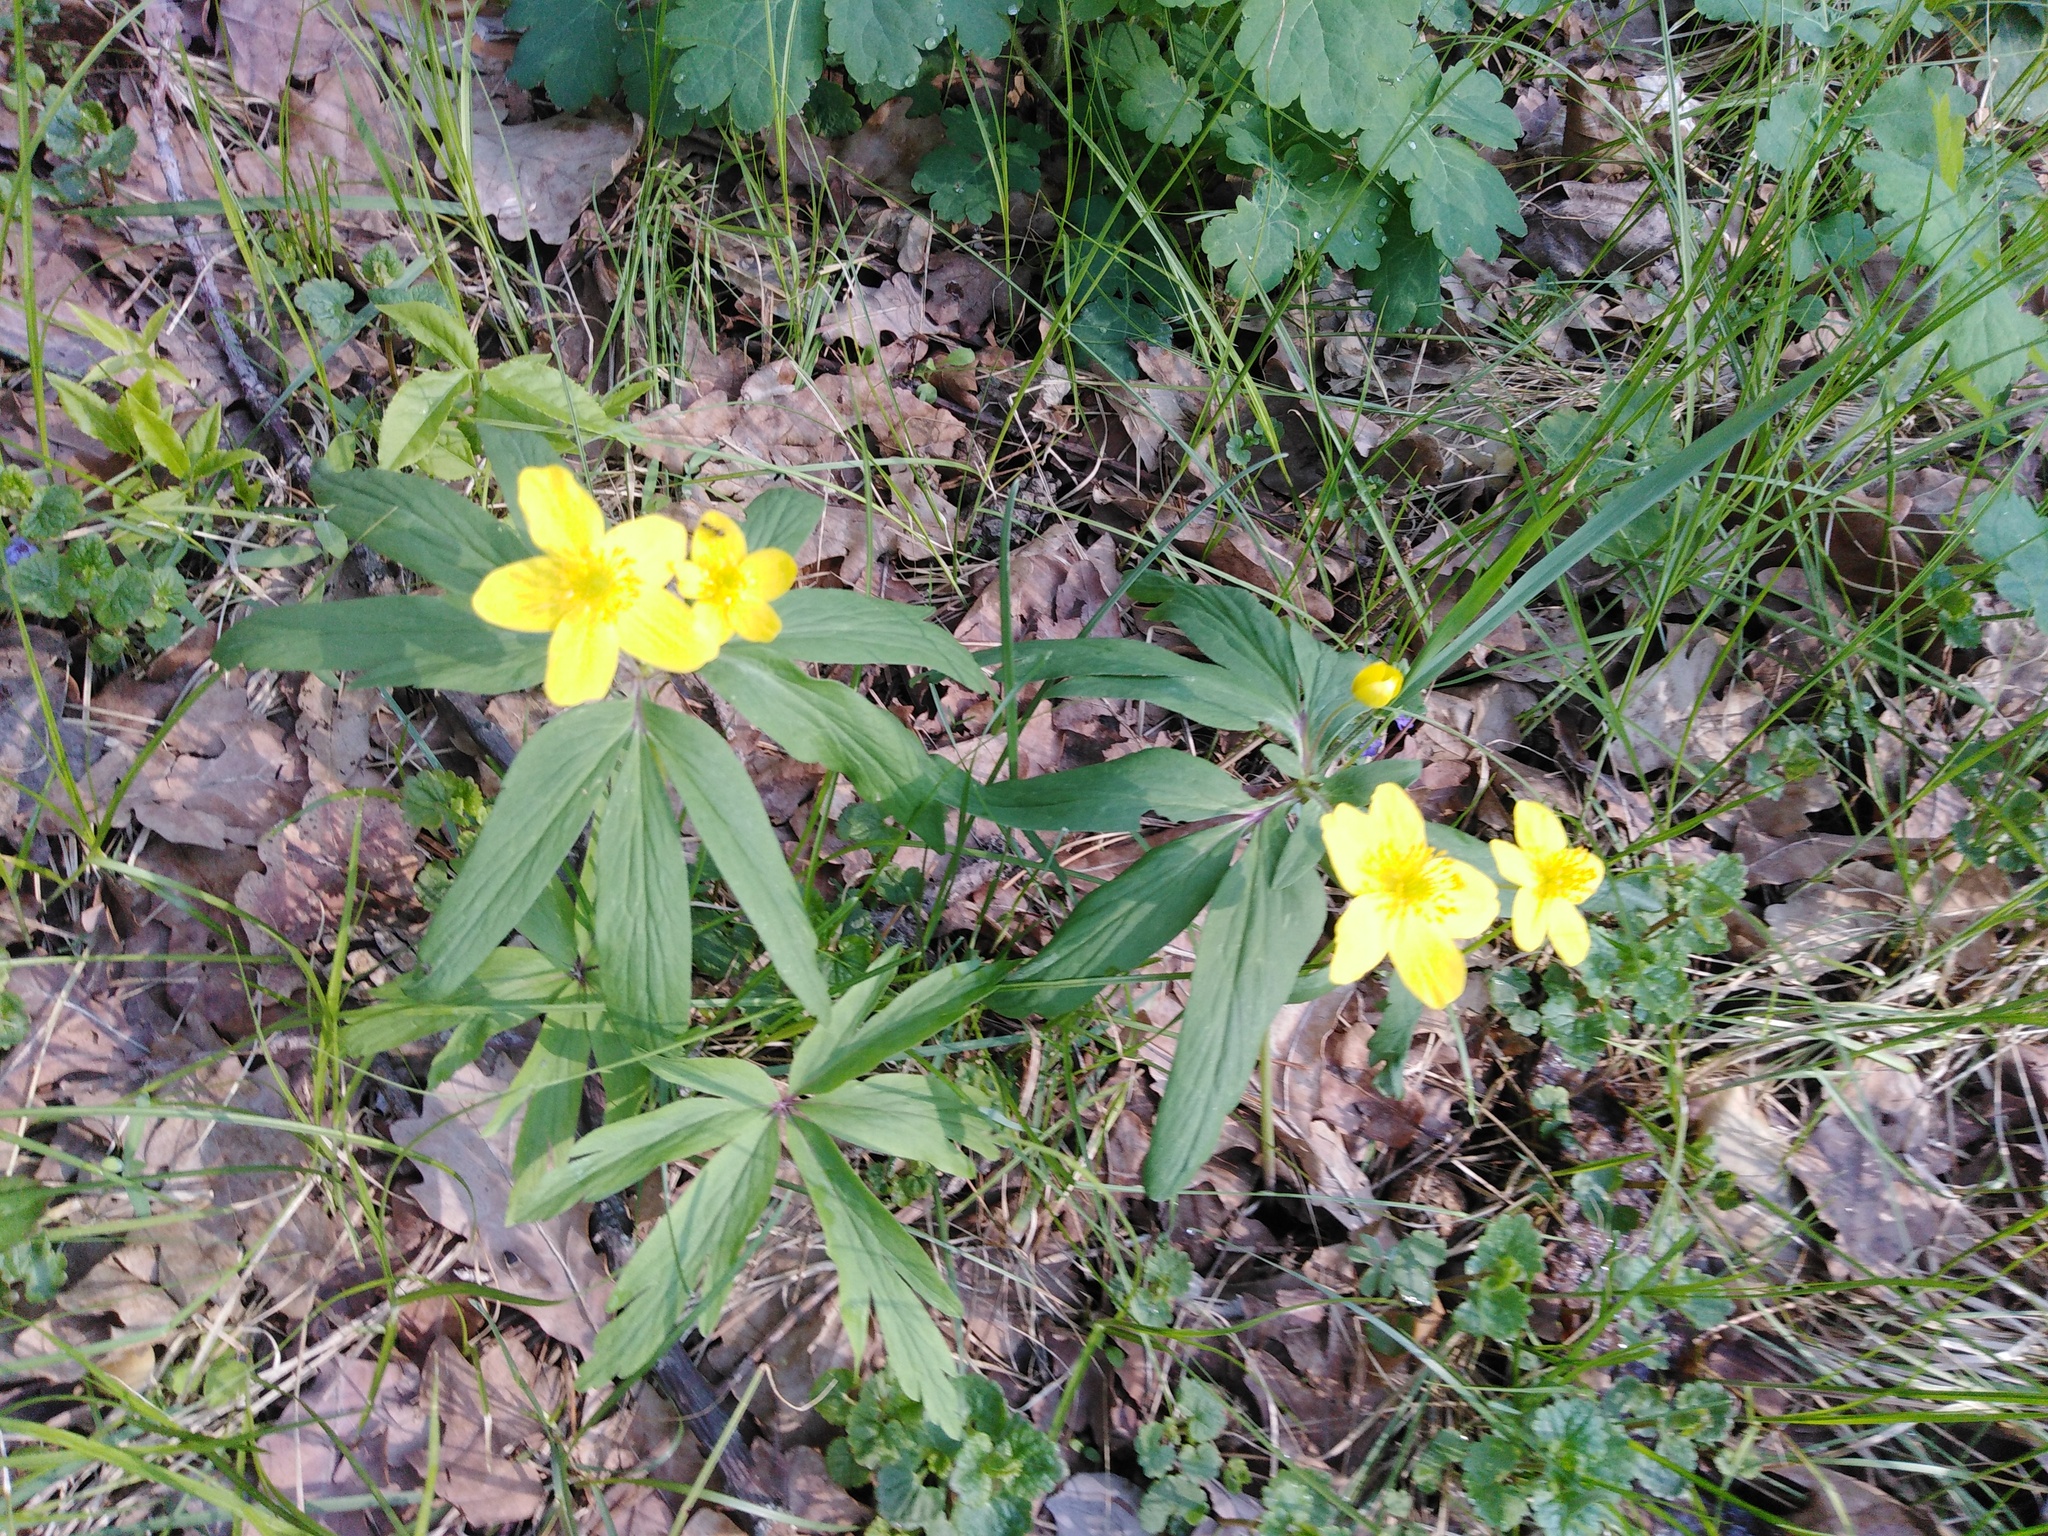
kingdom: Plantae
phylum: Tracheophyta
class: Magnoliopsida
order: Ranunculales
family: Ranunculaceae
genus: Anemone
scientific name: Anemone ranunculoides
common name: Yellow anemone
